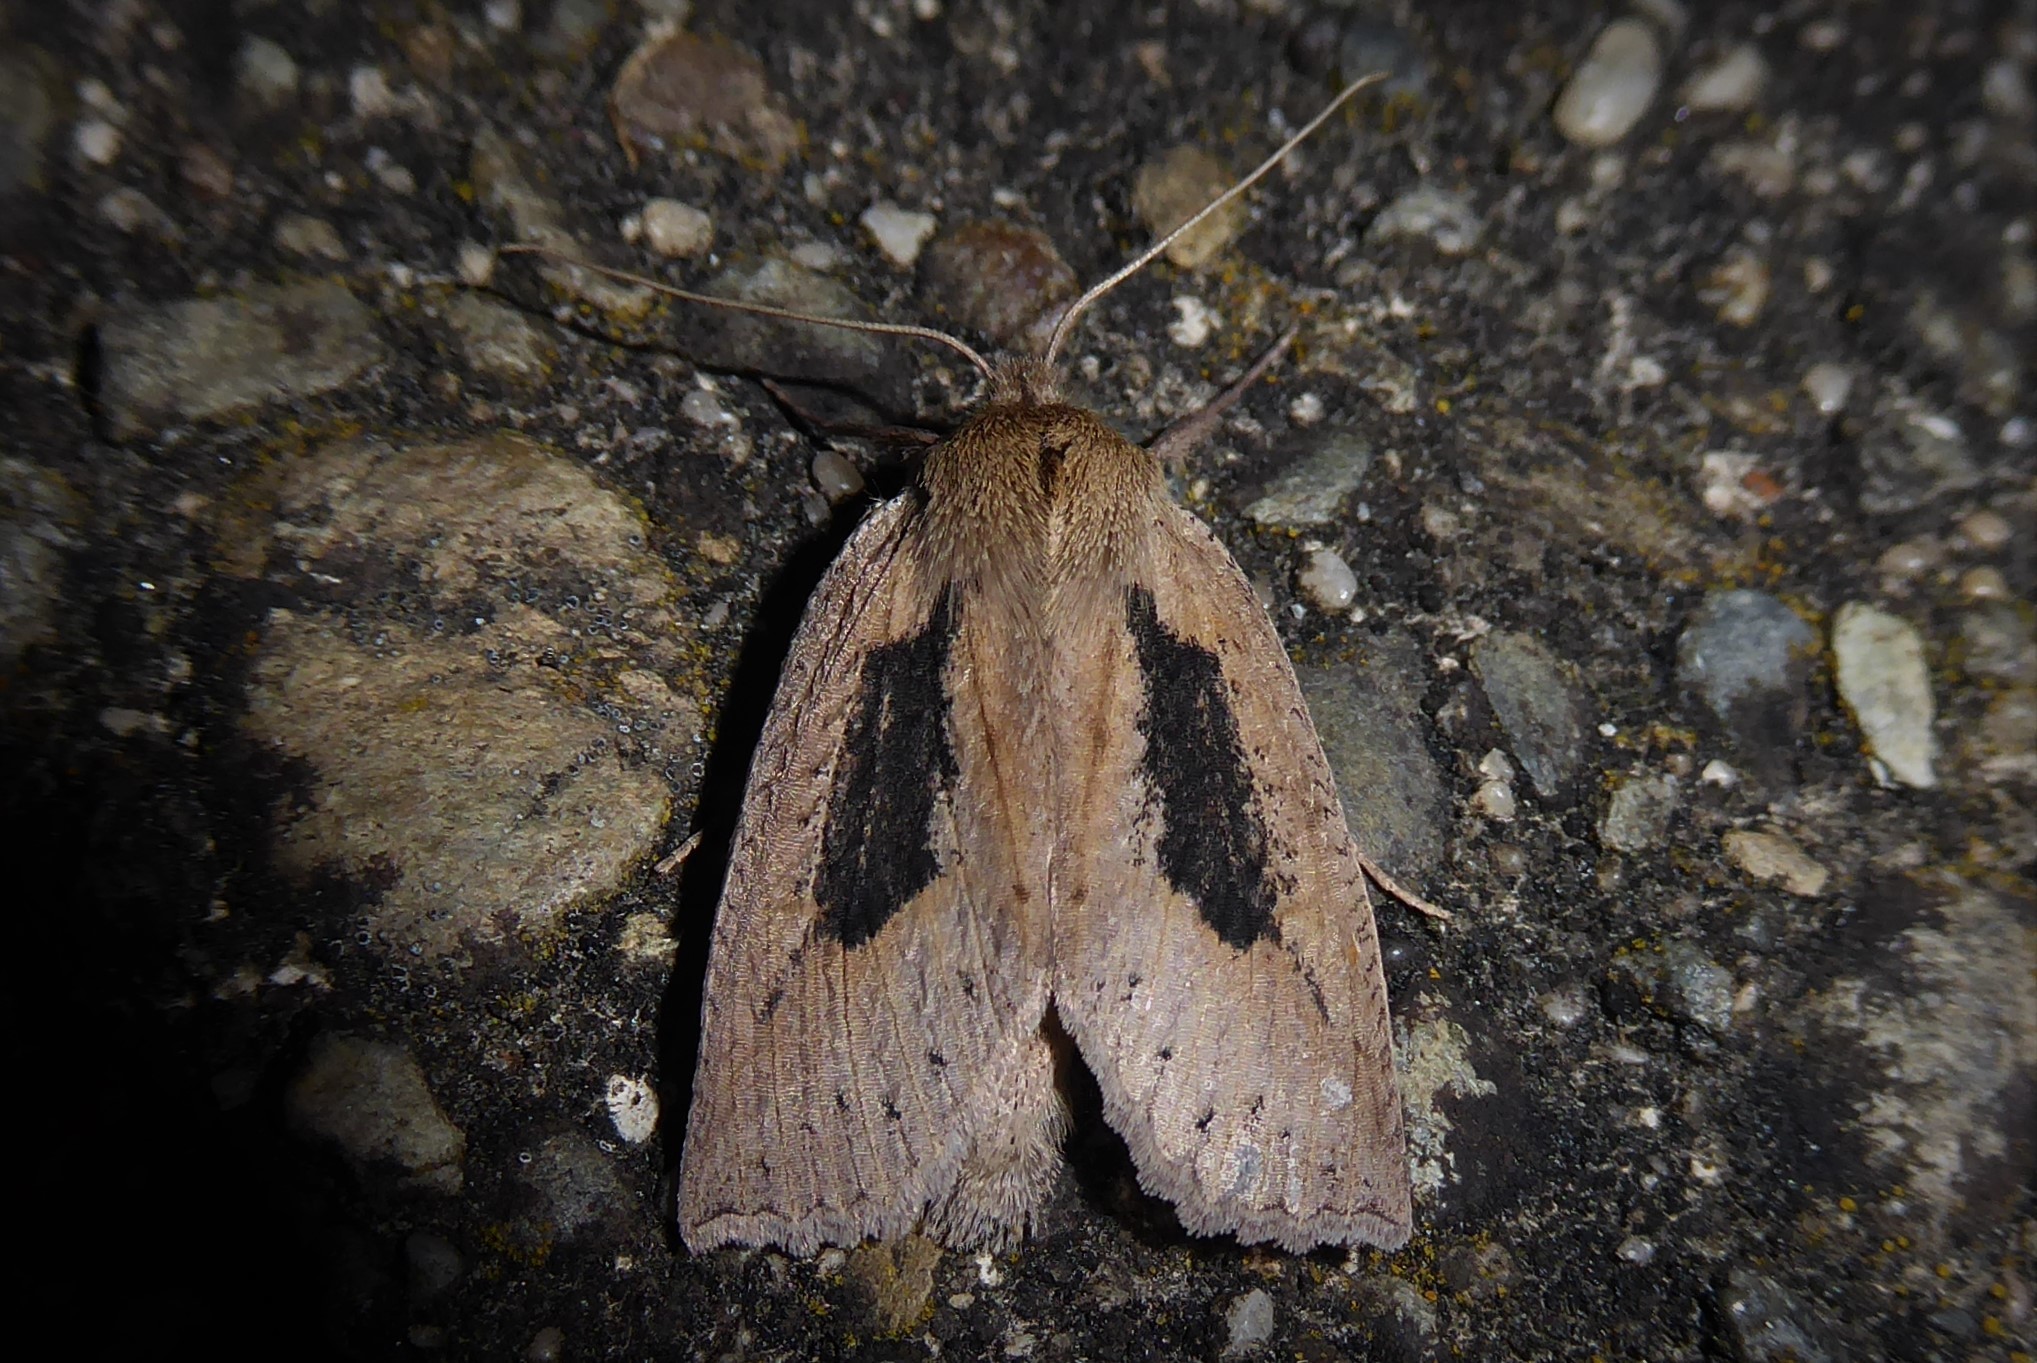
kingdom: Animalia
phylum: Arthropoda
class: Insecta
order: Lepidoptera
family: Geometridae
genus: Declana
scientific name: Declana leptomera
